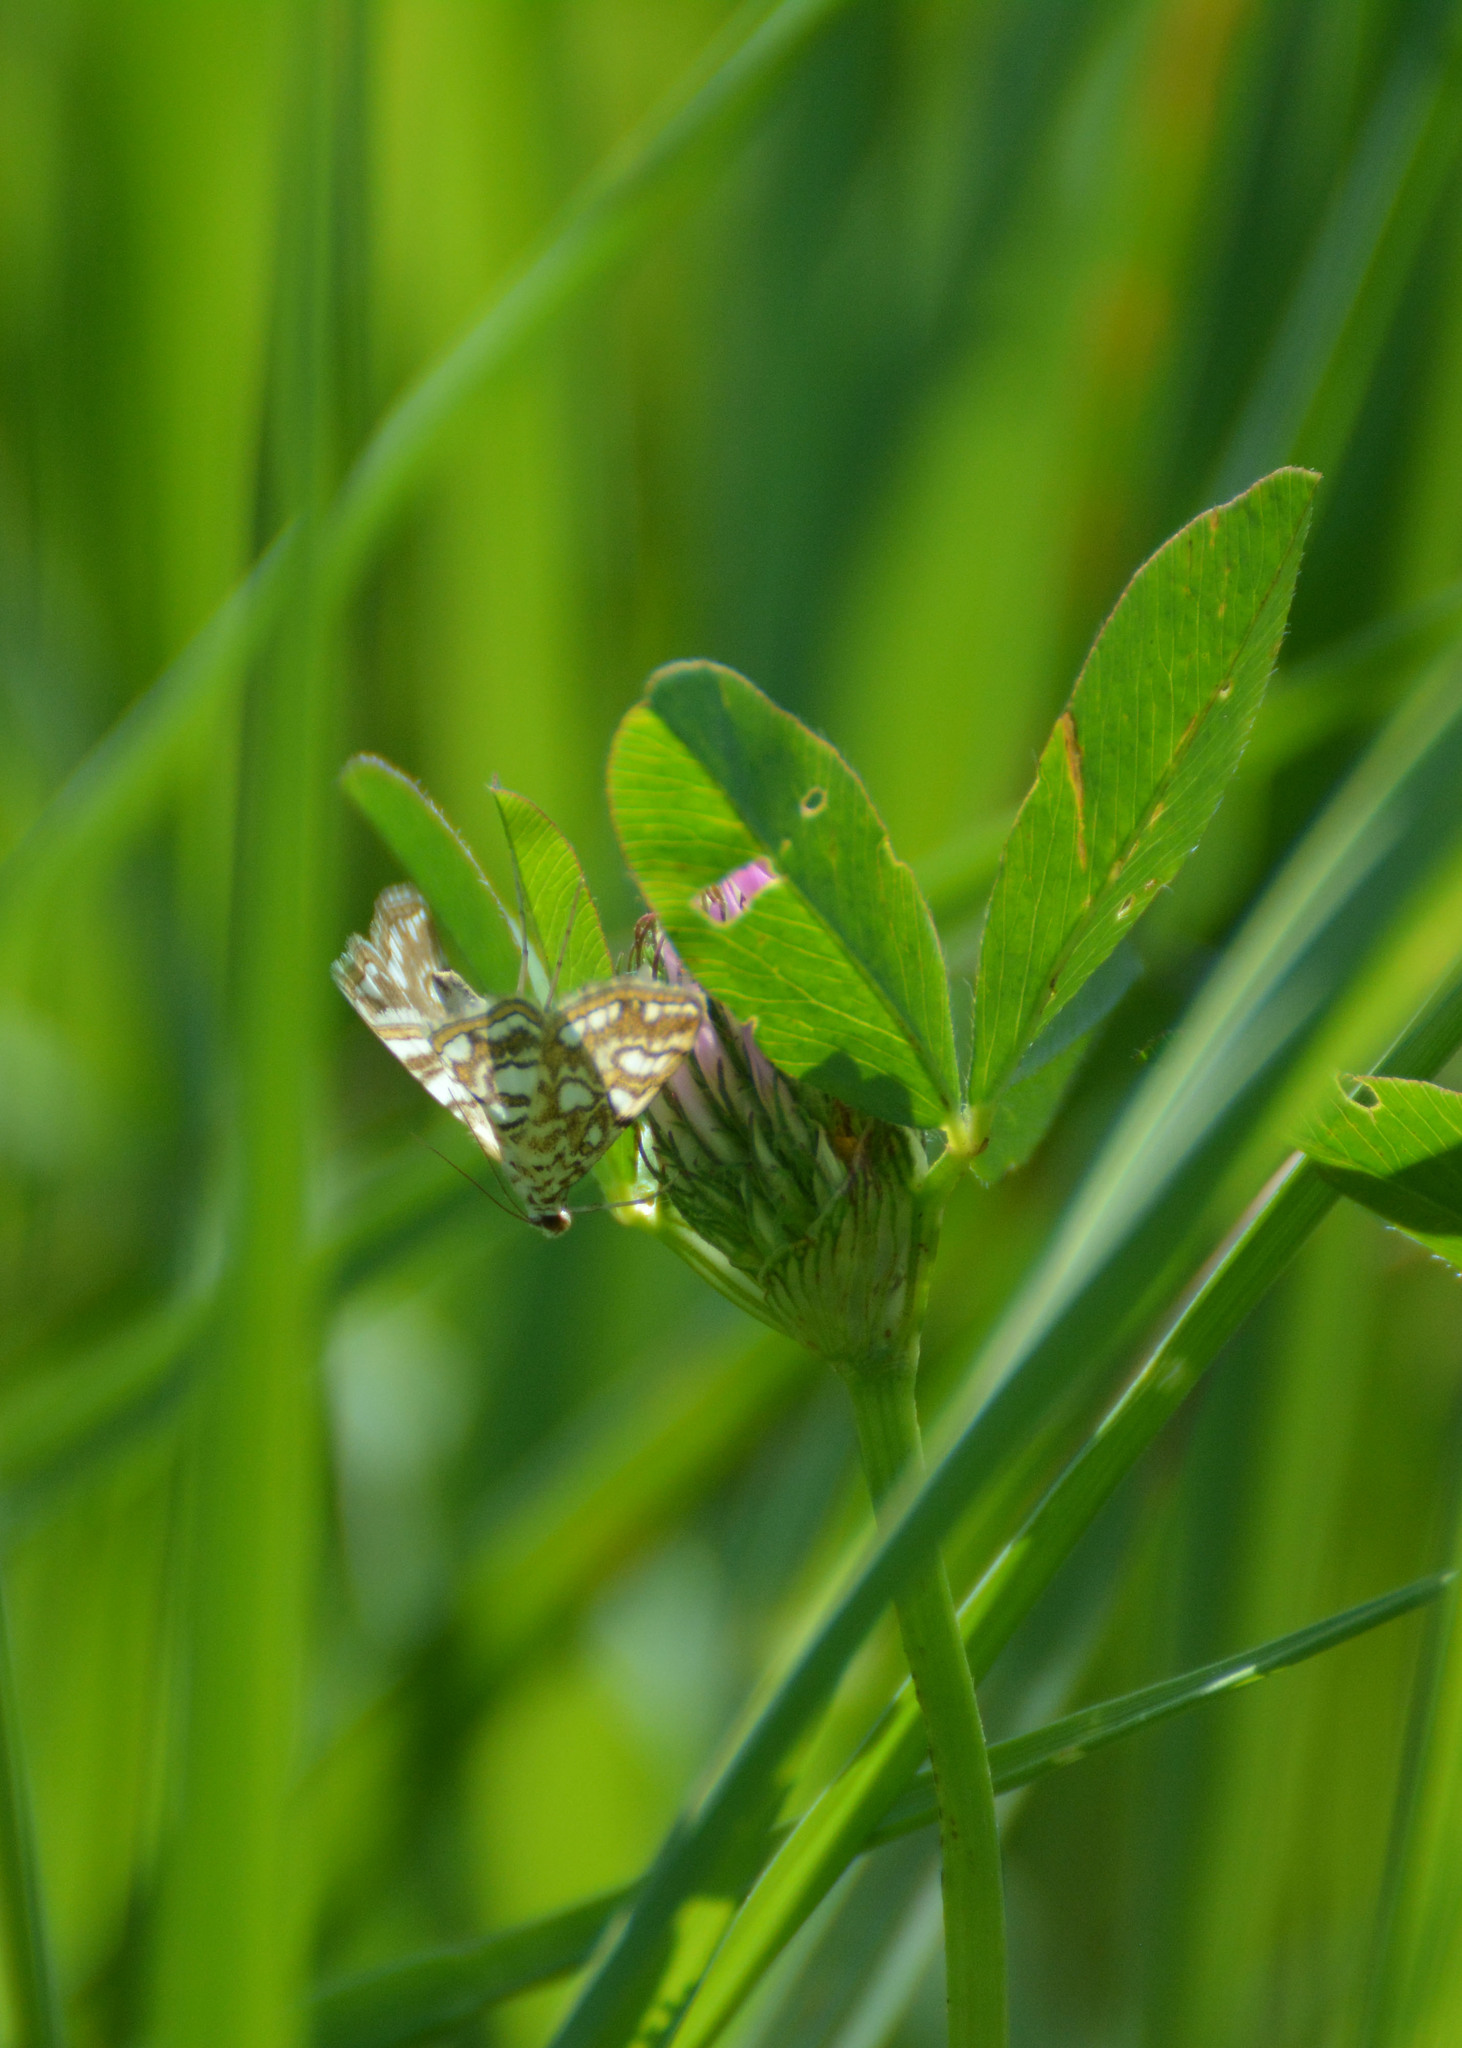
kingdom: Animalia
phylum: Arthropoda
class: Insecta
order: Lepidoptera
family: Crambidae
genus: Elophila
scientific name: Elophila nymphaeata
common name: Brown china-mark
